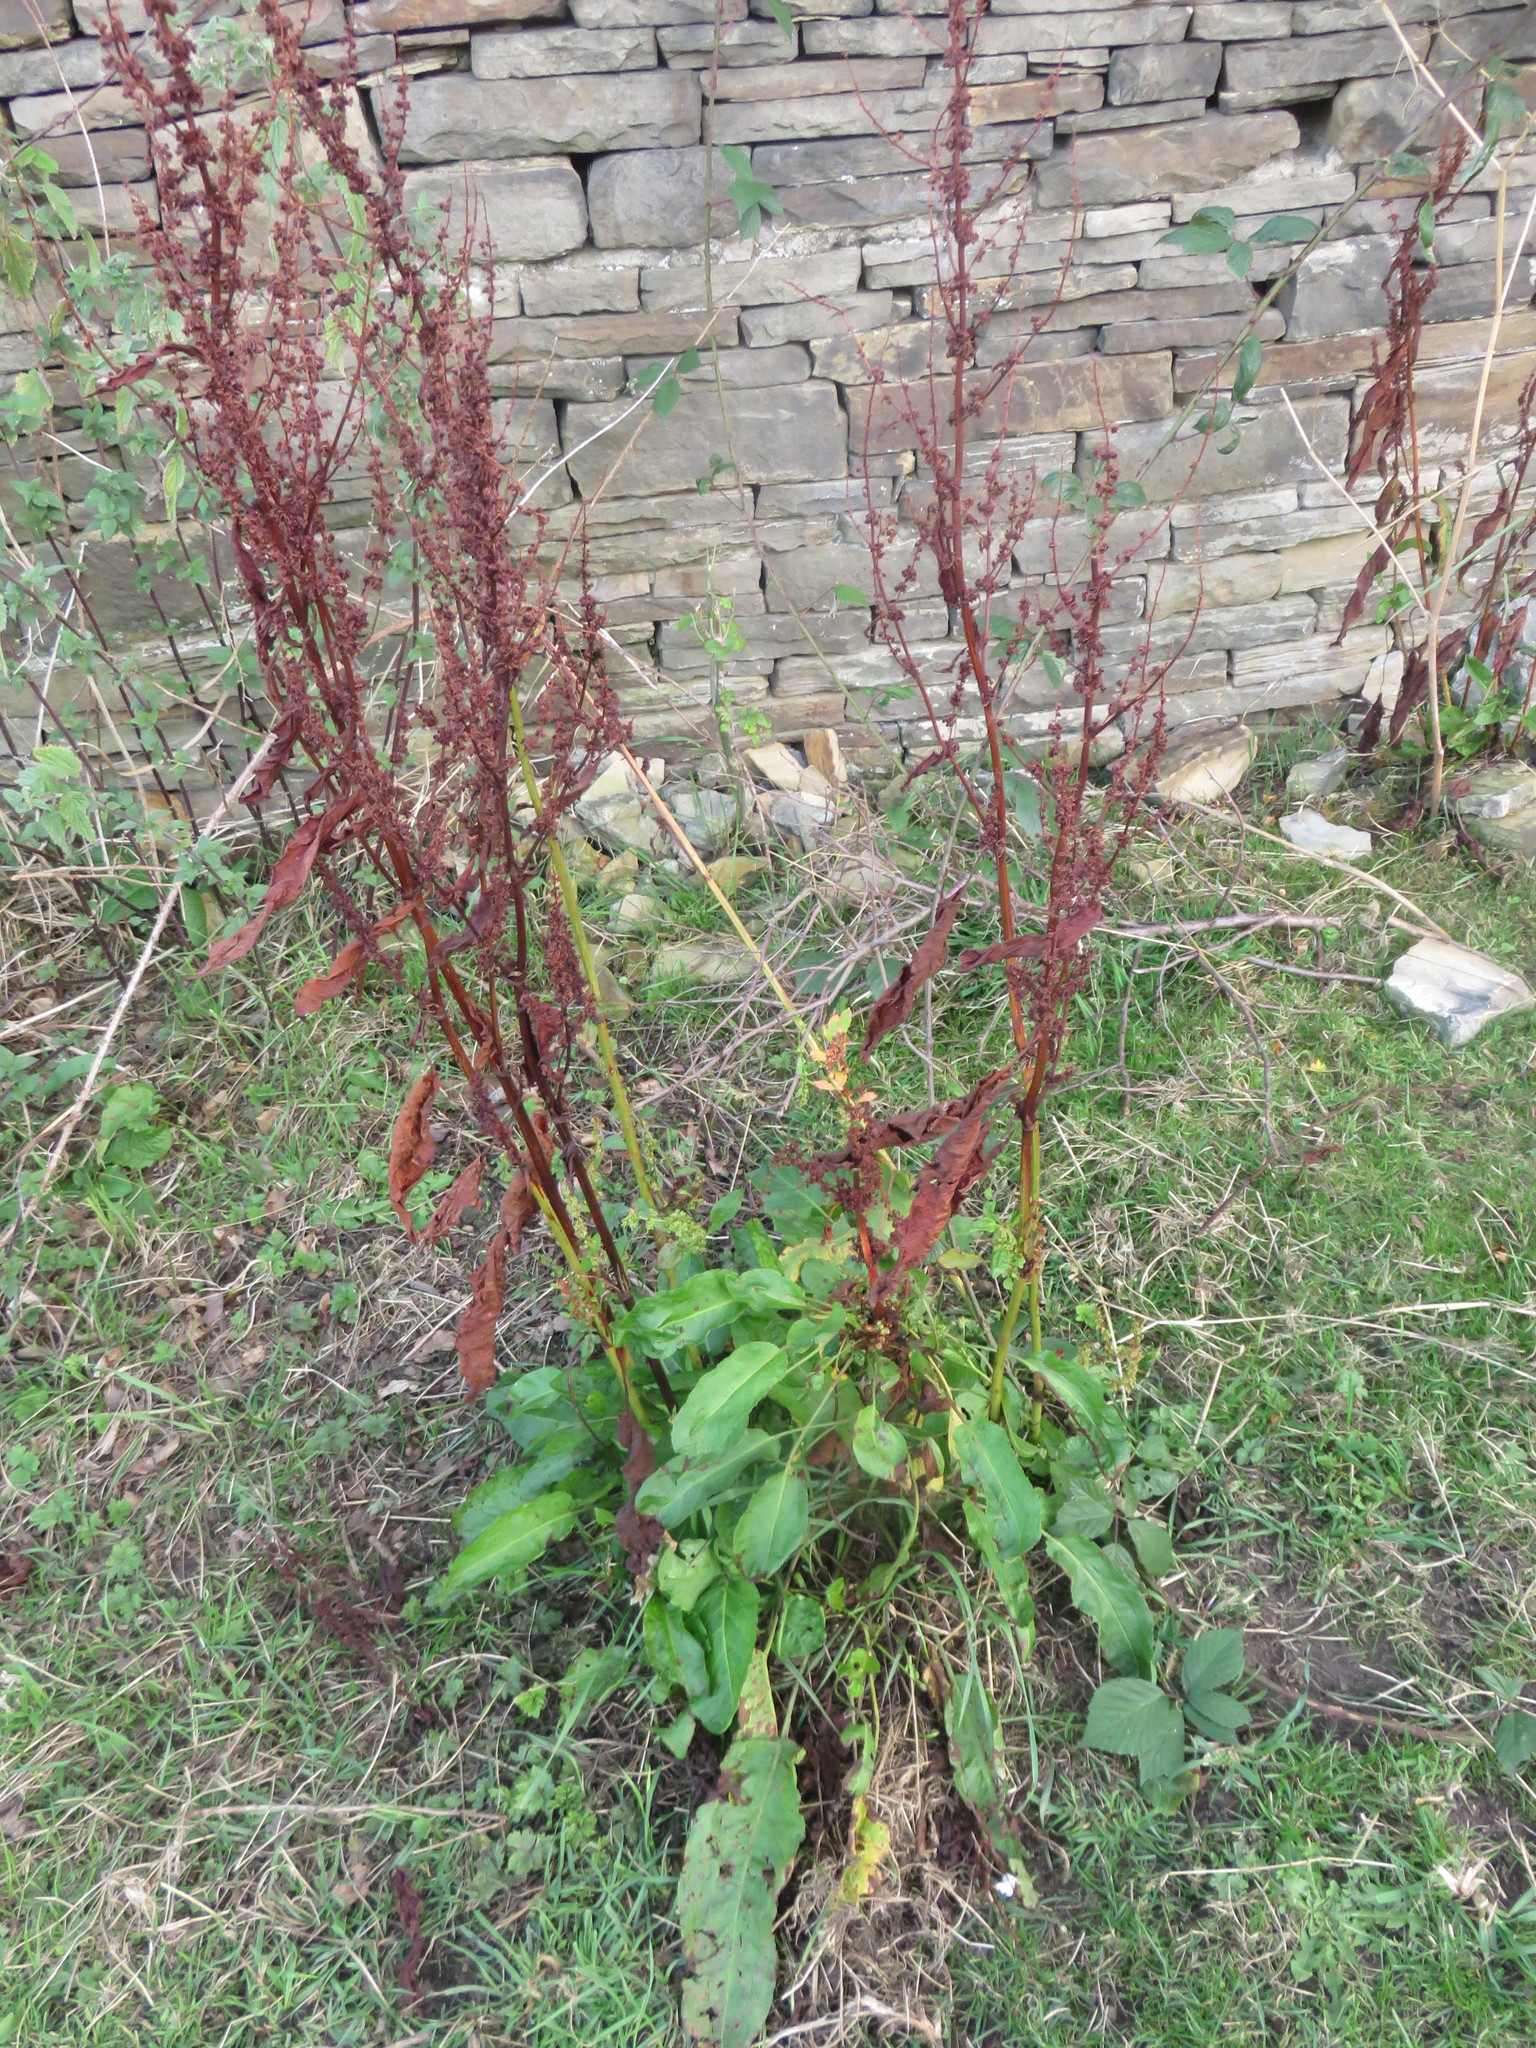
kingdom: Plantae
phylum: Tracheophyta
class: Magnoliopsida
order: Caryophyllales
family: Polygonaceae
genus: Rumex
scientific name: Rumex obtusifolius
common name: Bitter dock
